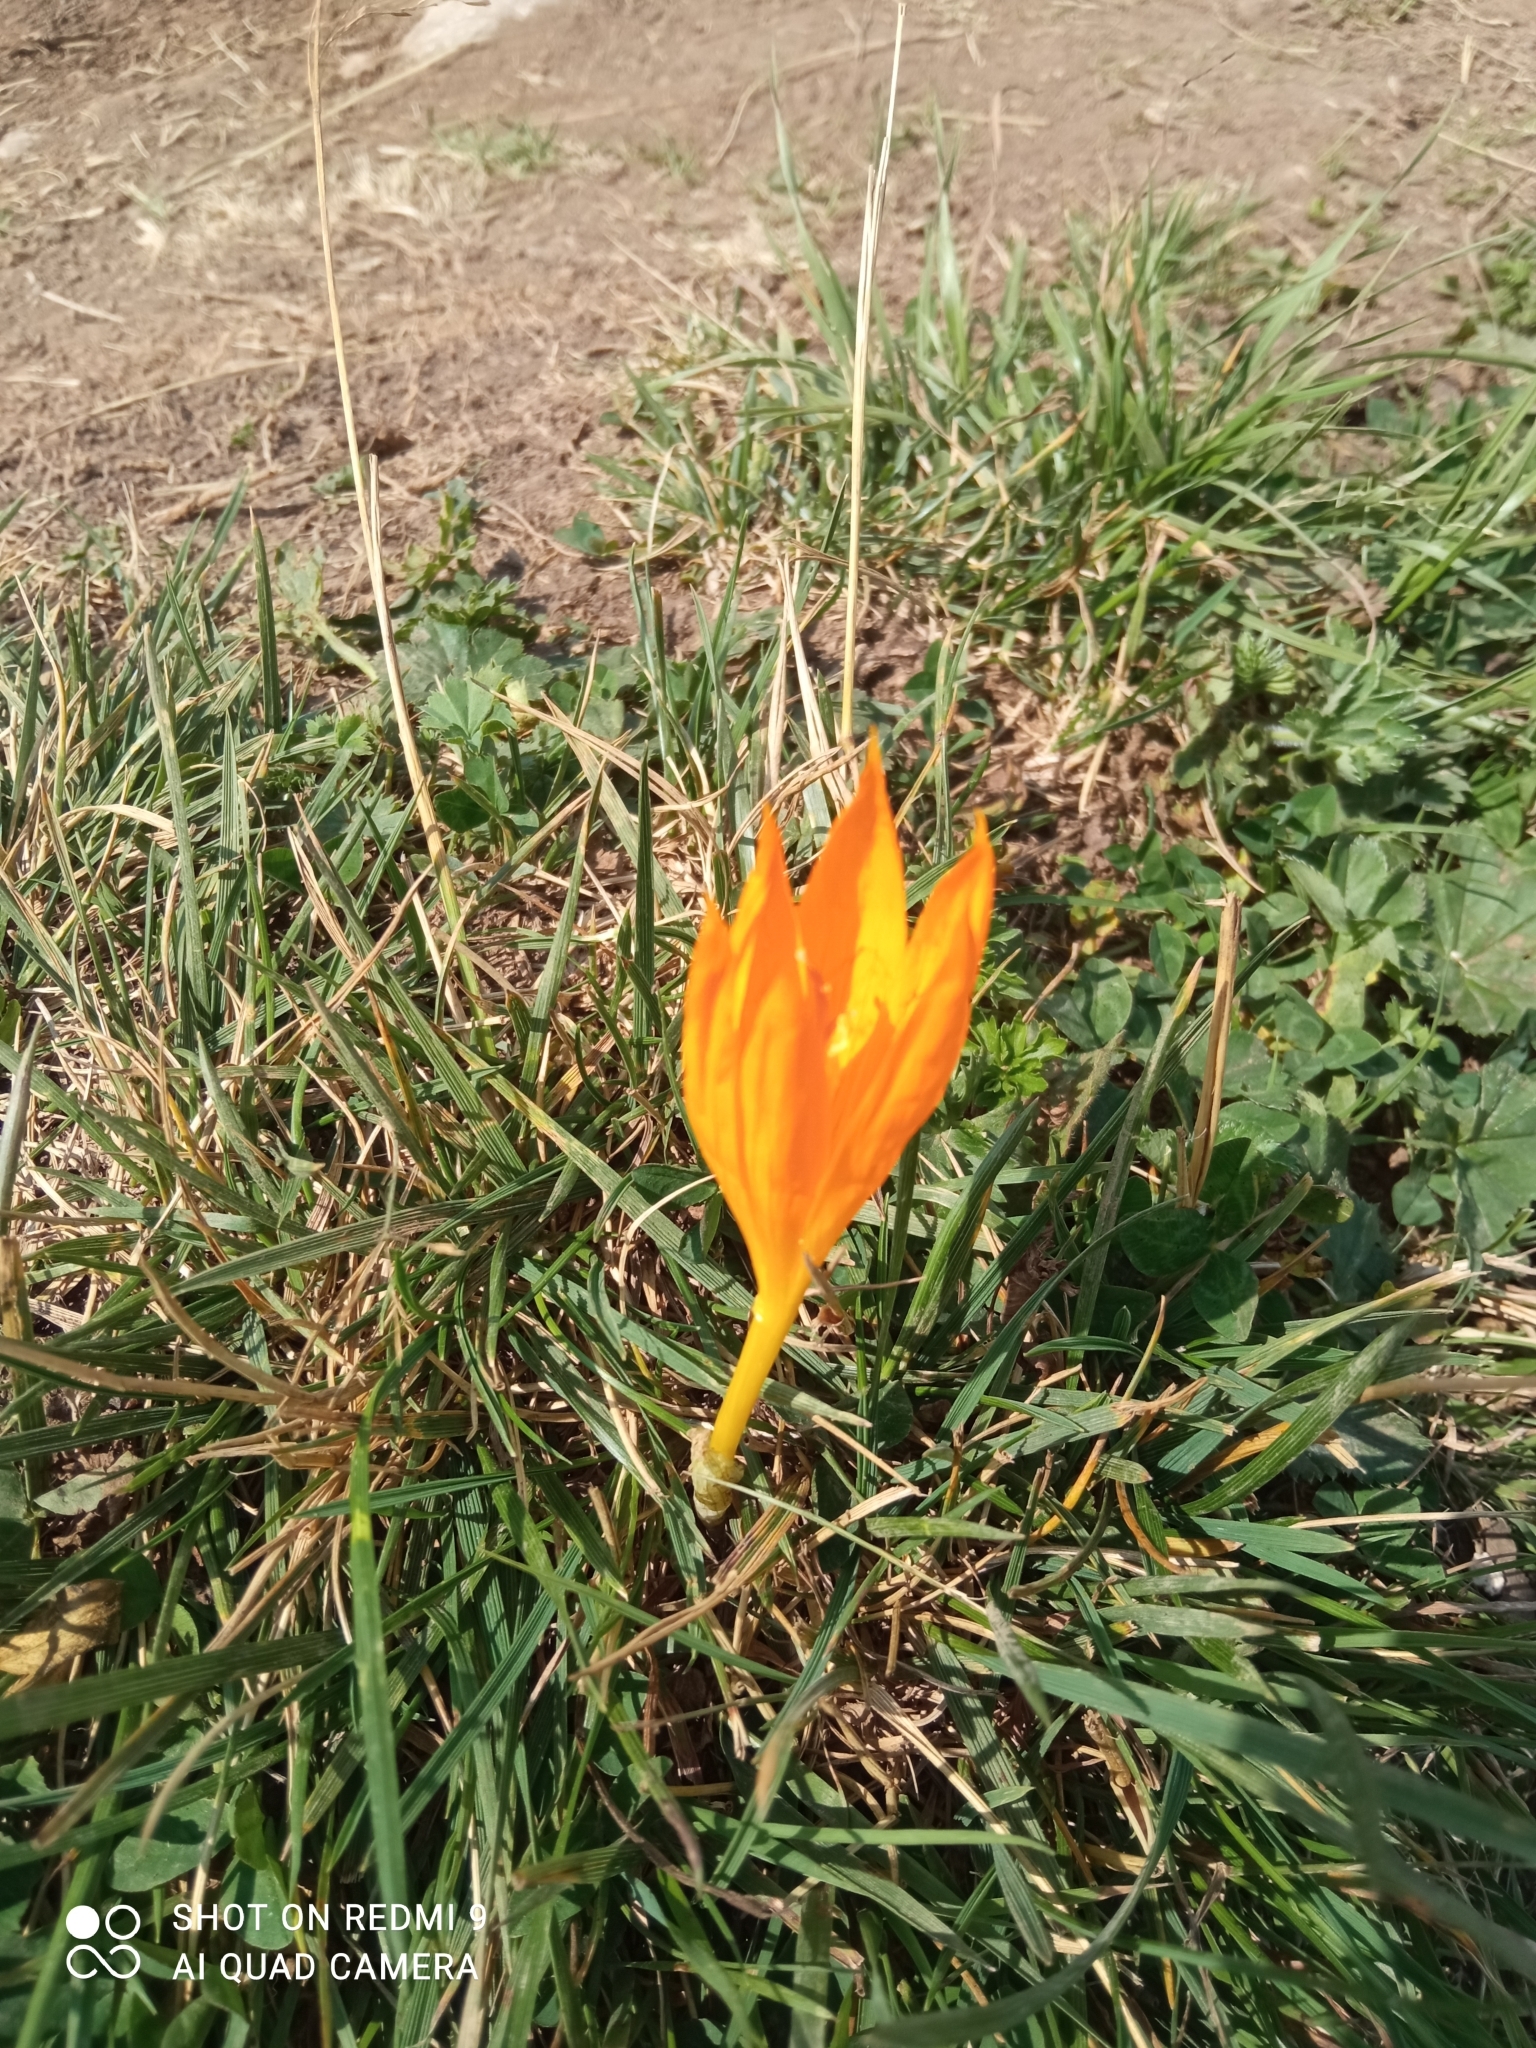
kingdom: Plantae
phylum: Tracheophyta
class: Liliopsida
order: Asparagales
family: Iridaceae
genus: Crocus
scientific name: Crocus scharojanii
